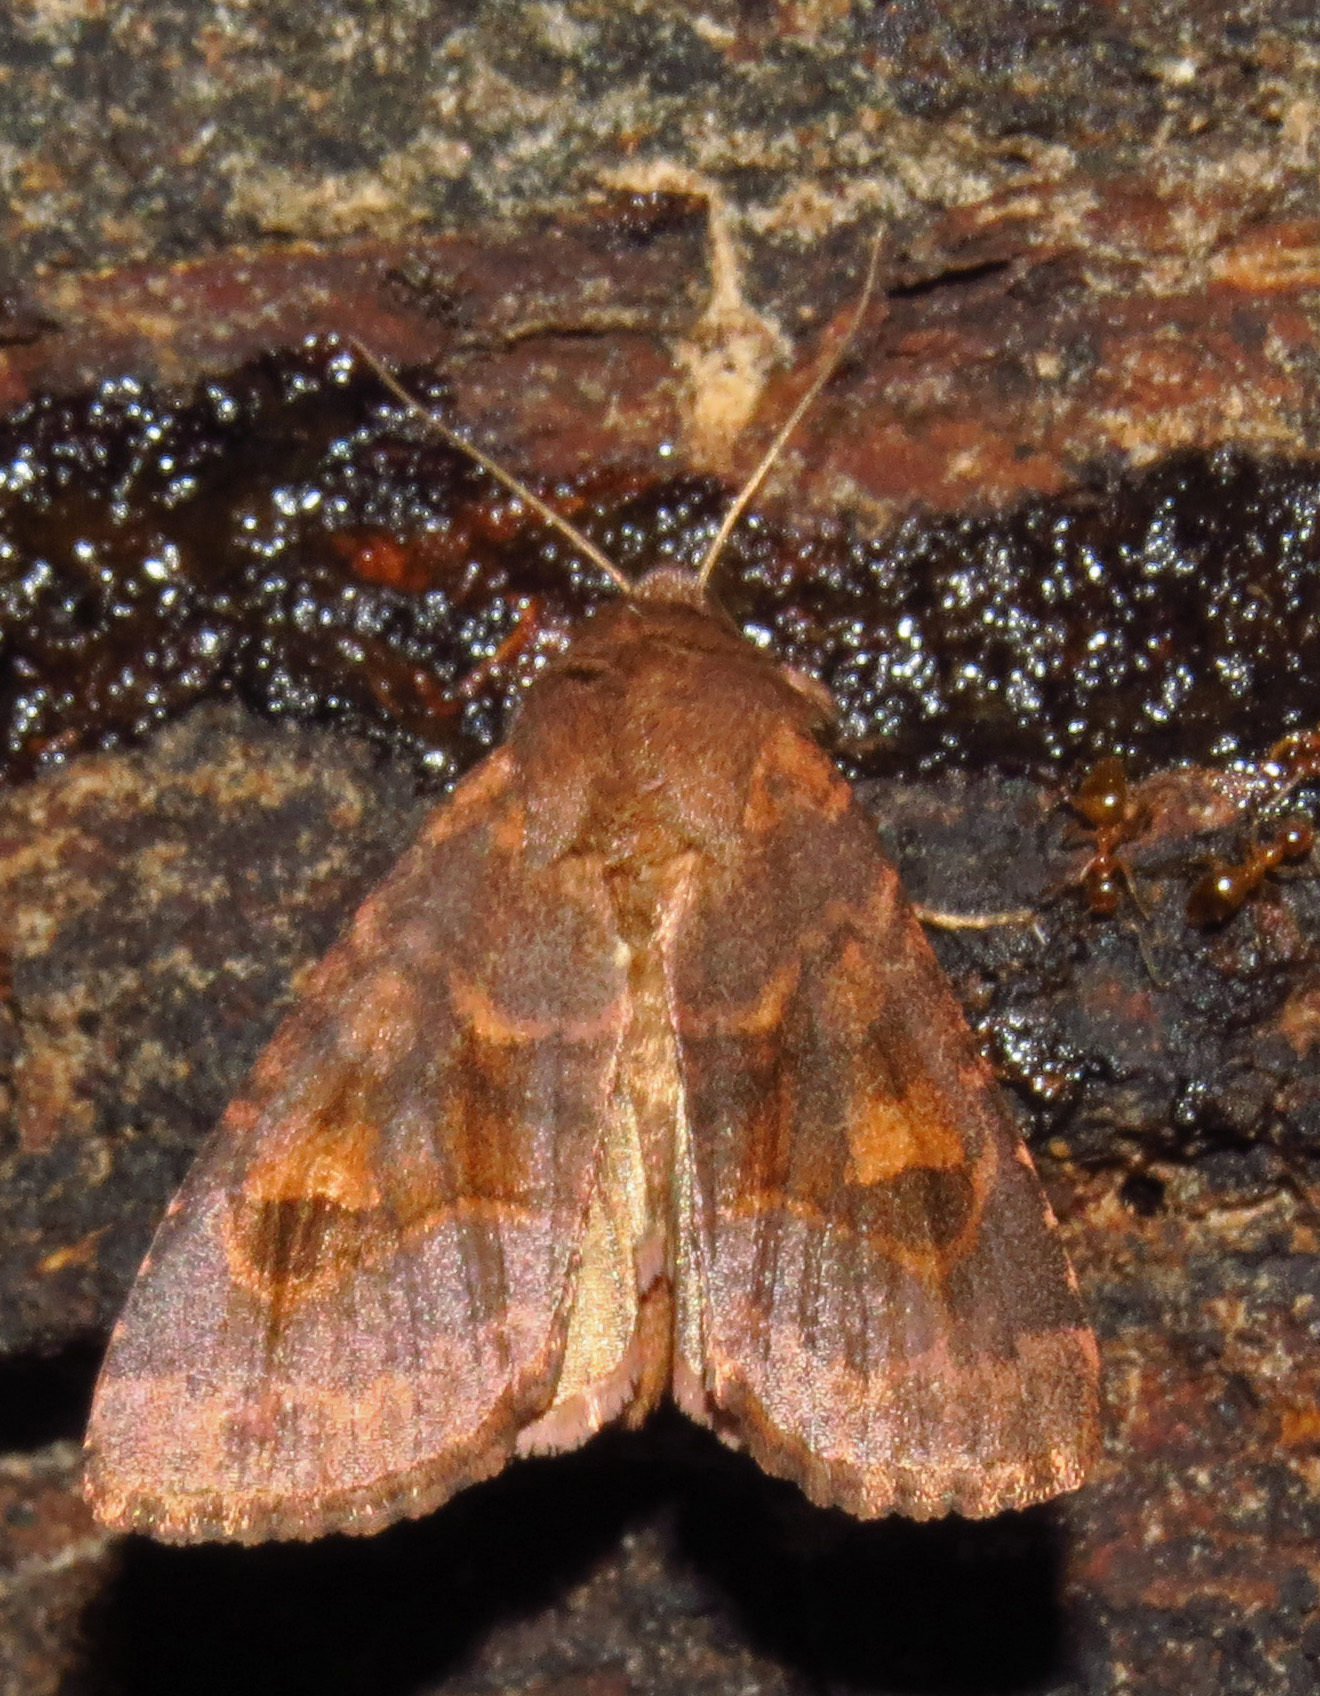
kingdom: Animalia
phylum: Arthropoda
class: Insecta
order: Lepidoptera
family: Noctuidae
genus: Nephelodes
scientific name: Nephelodes minians
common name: Bronzed cutworm
